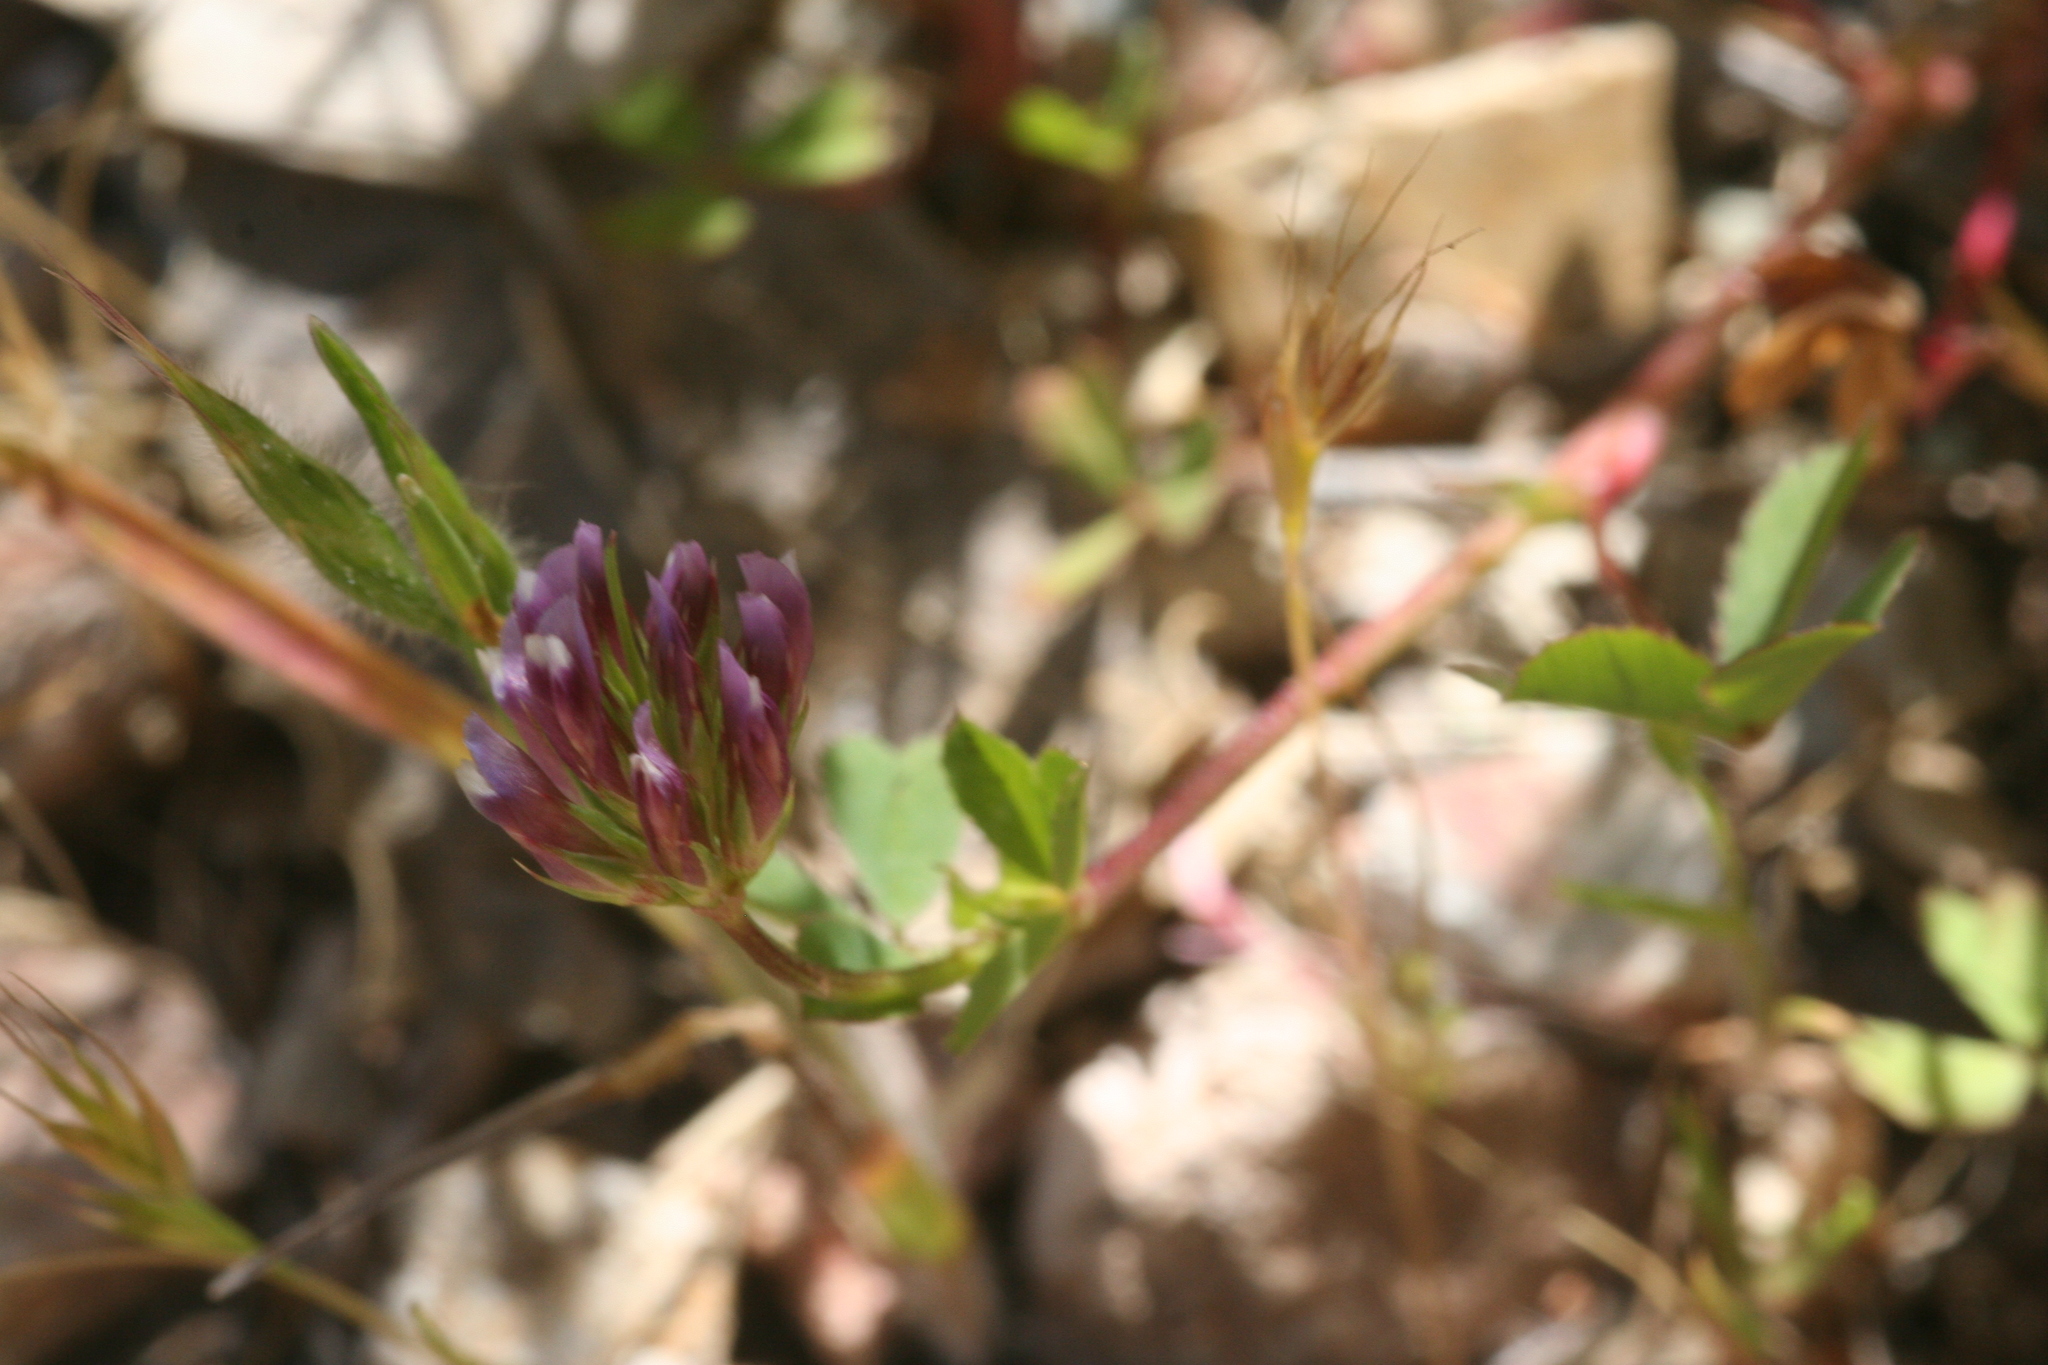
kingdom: Plantae
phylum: Tracheophyta
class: Magnoliopsida
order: Fabales
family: Fabaceae
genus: Trifolium
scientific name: Trifolium gracilentum
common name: Slender clover
